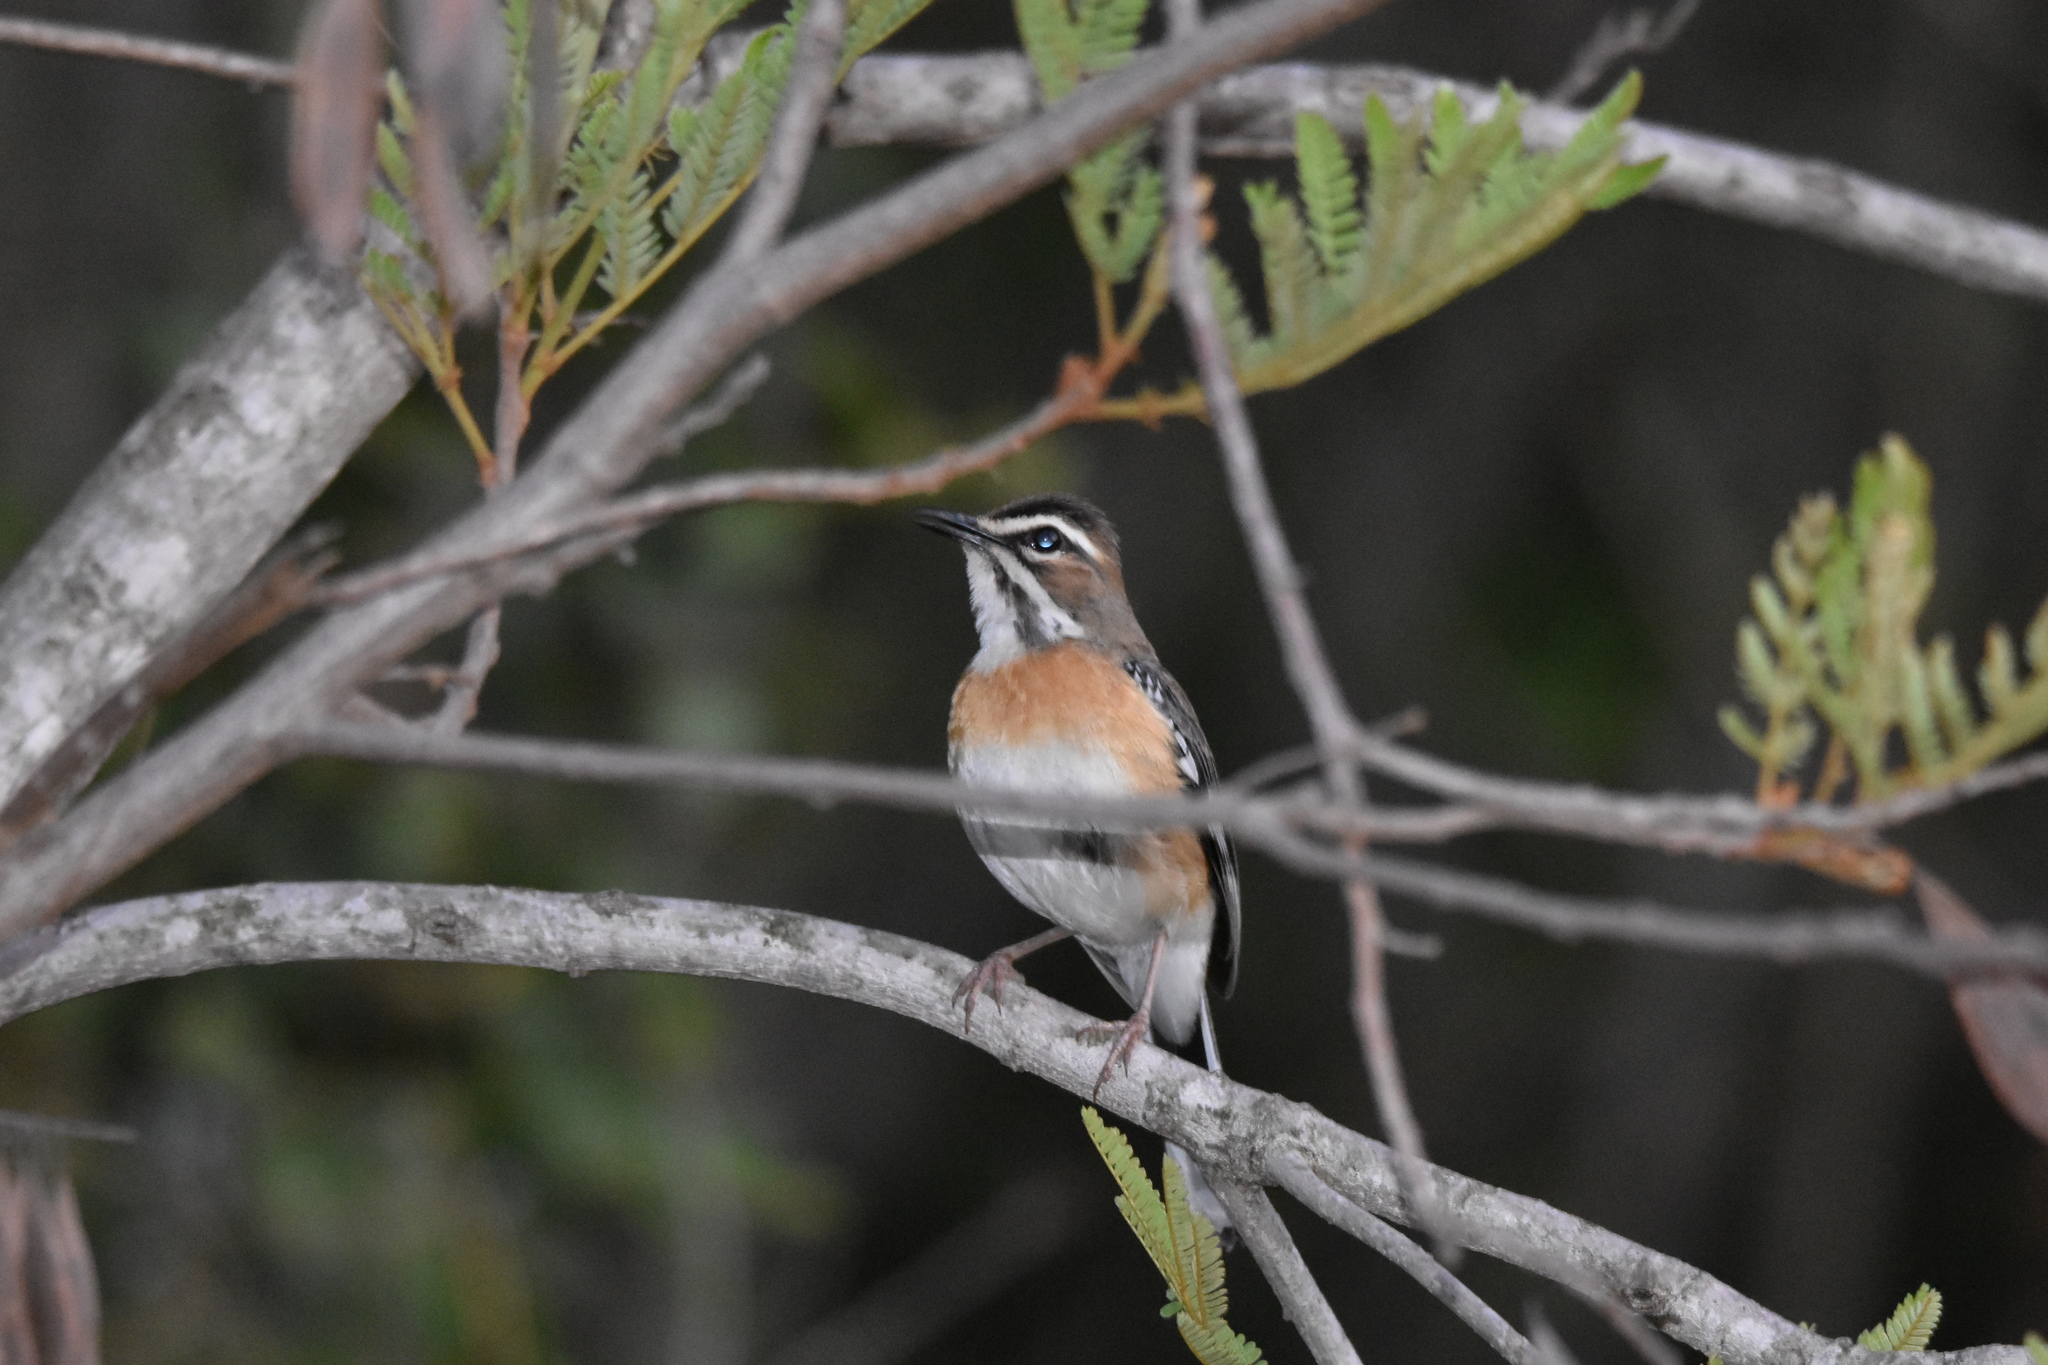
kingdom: Animalia
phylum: Chordata
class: Aves
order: Passeriformes
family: Muscicapidae
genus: Erythropygia
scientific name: Erythropygia quadrivirgata
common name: Bearded scrub robin
